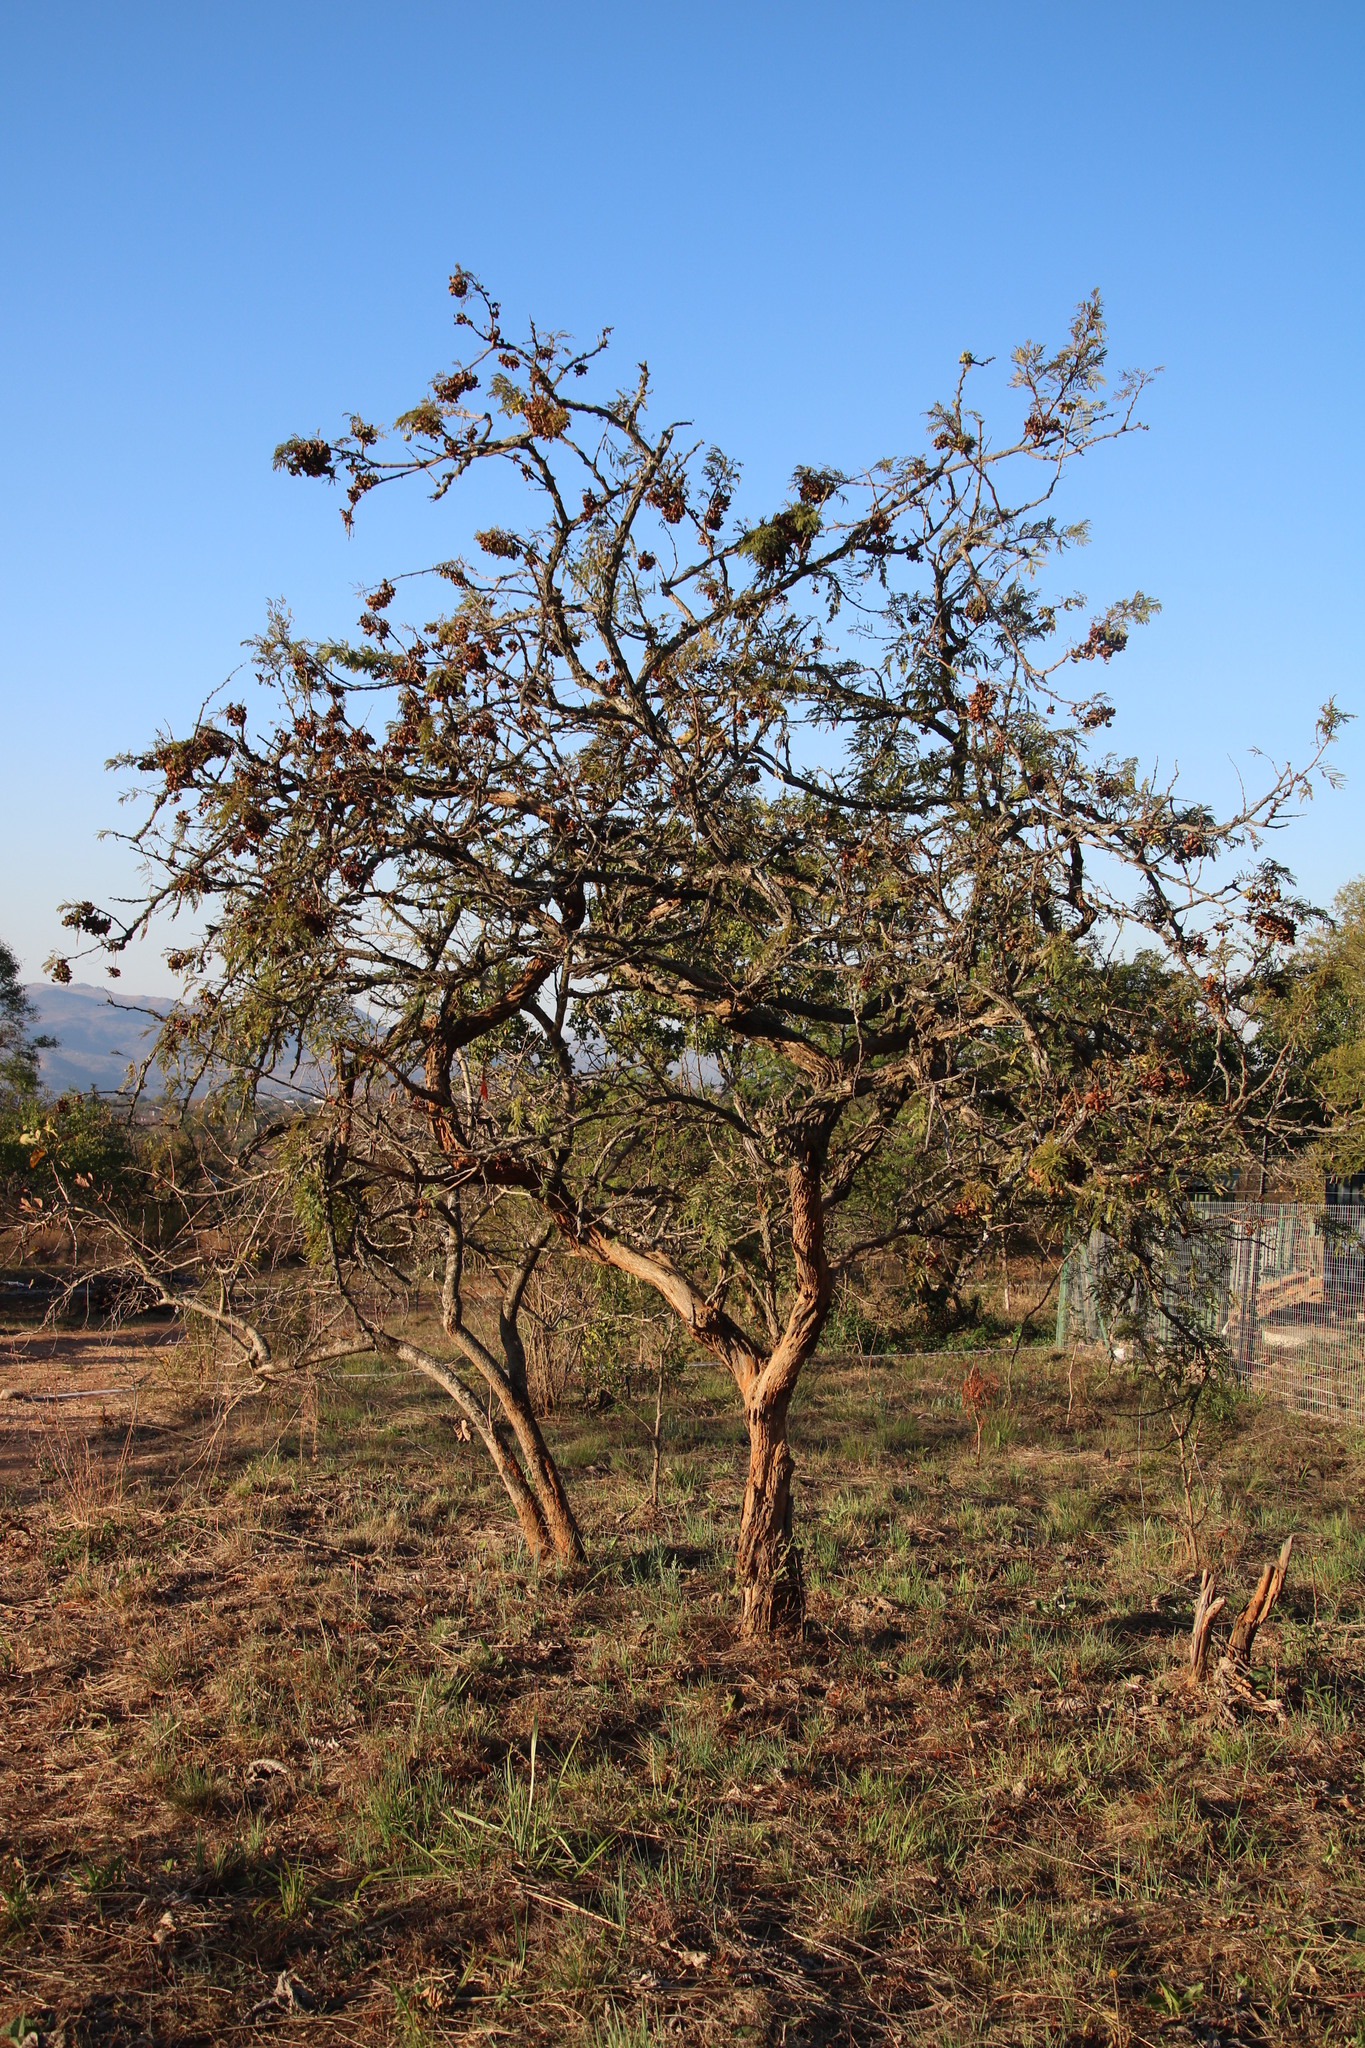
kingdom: Plantae
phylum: Tracheophyta
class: Magnoliopsida
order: Fabales
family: Fabaceae
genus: Dichrostachys
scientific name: Dichrostachys cinerea
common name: Sicklebush
